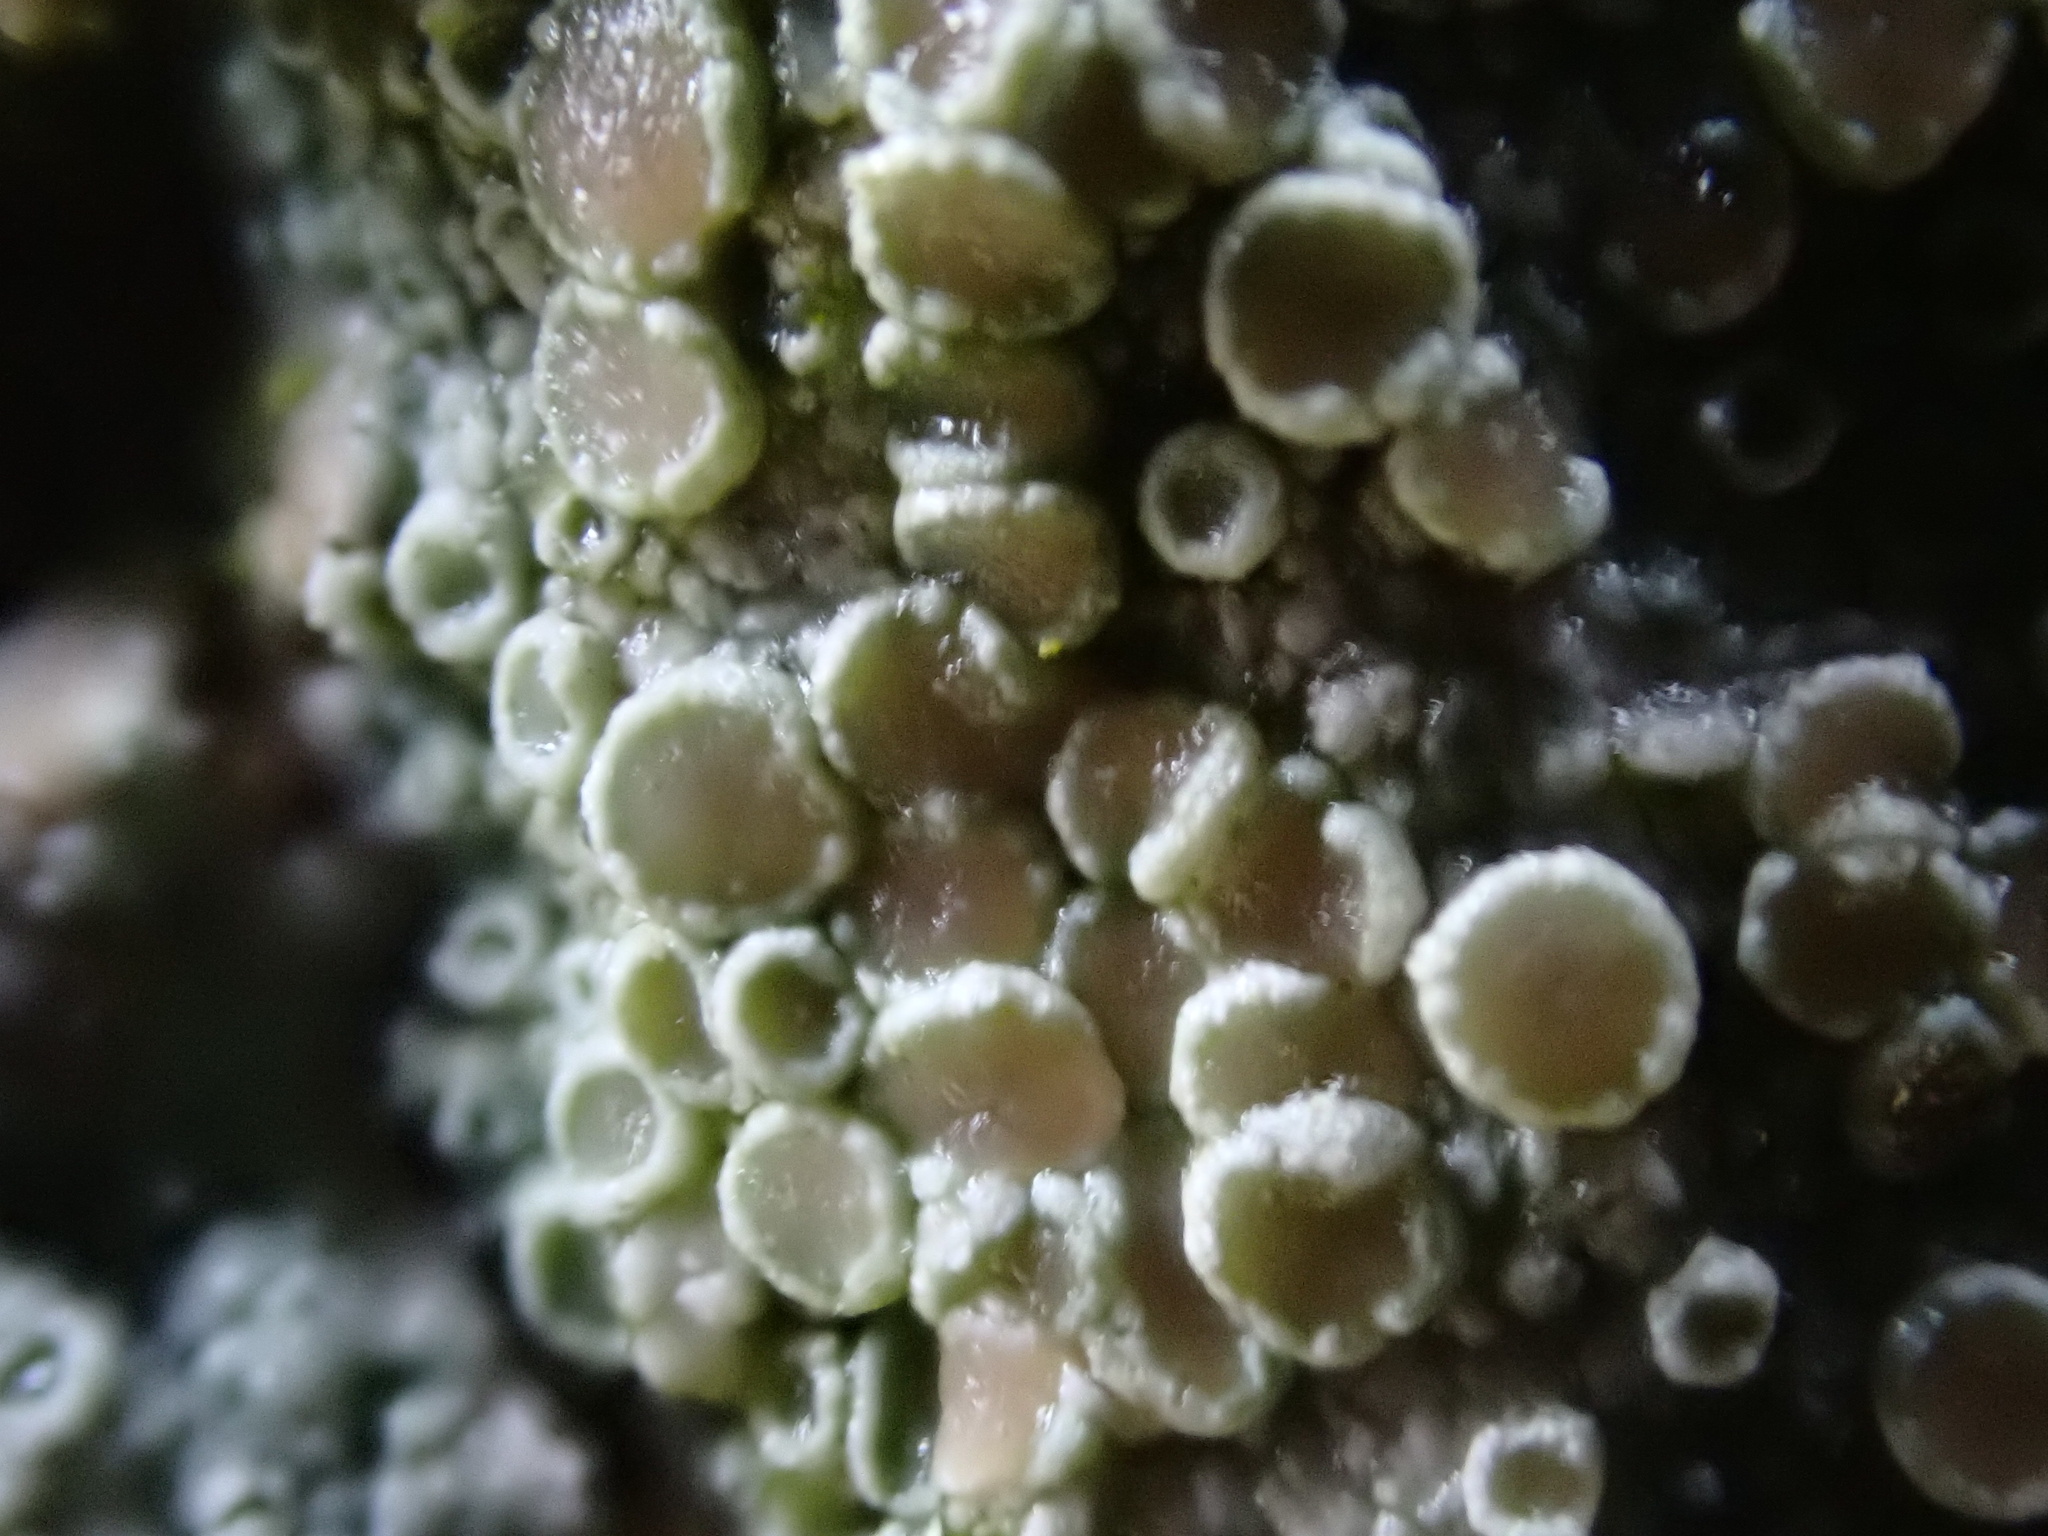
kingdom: Fungi
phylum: Ascomycota
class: Lecanoromycetes
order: Lecanorales
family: Lecanoraceae
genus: Lecanora
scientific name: Lecanora chlarotera
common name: Brown rim-lichen
